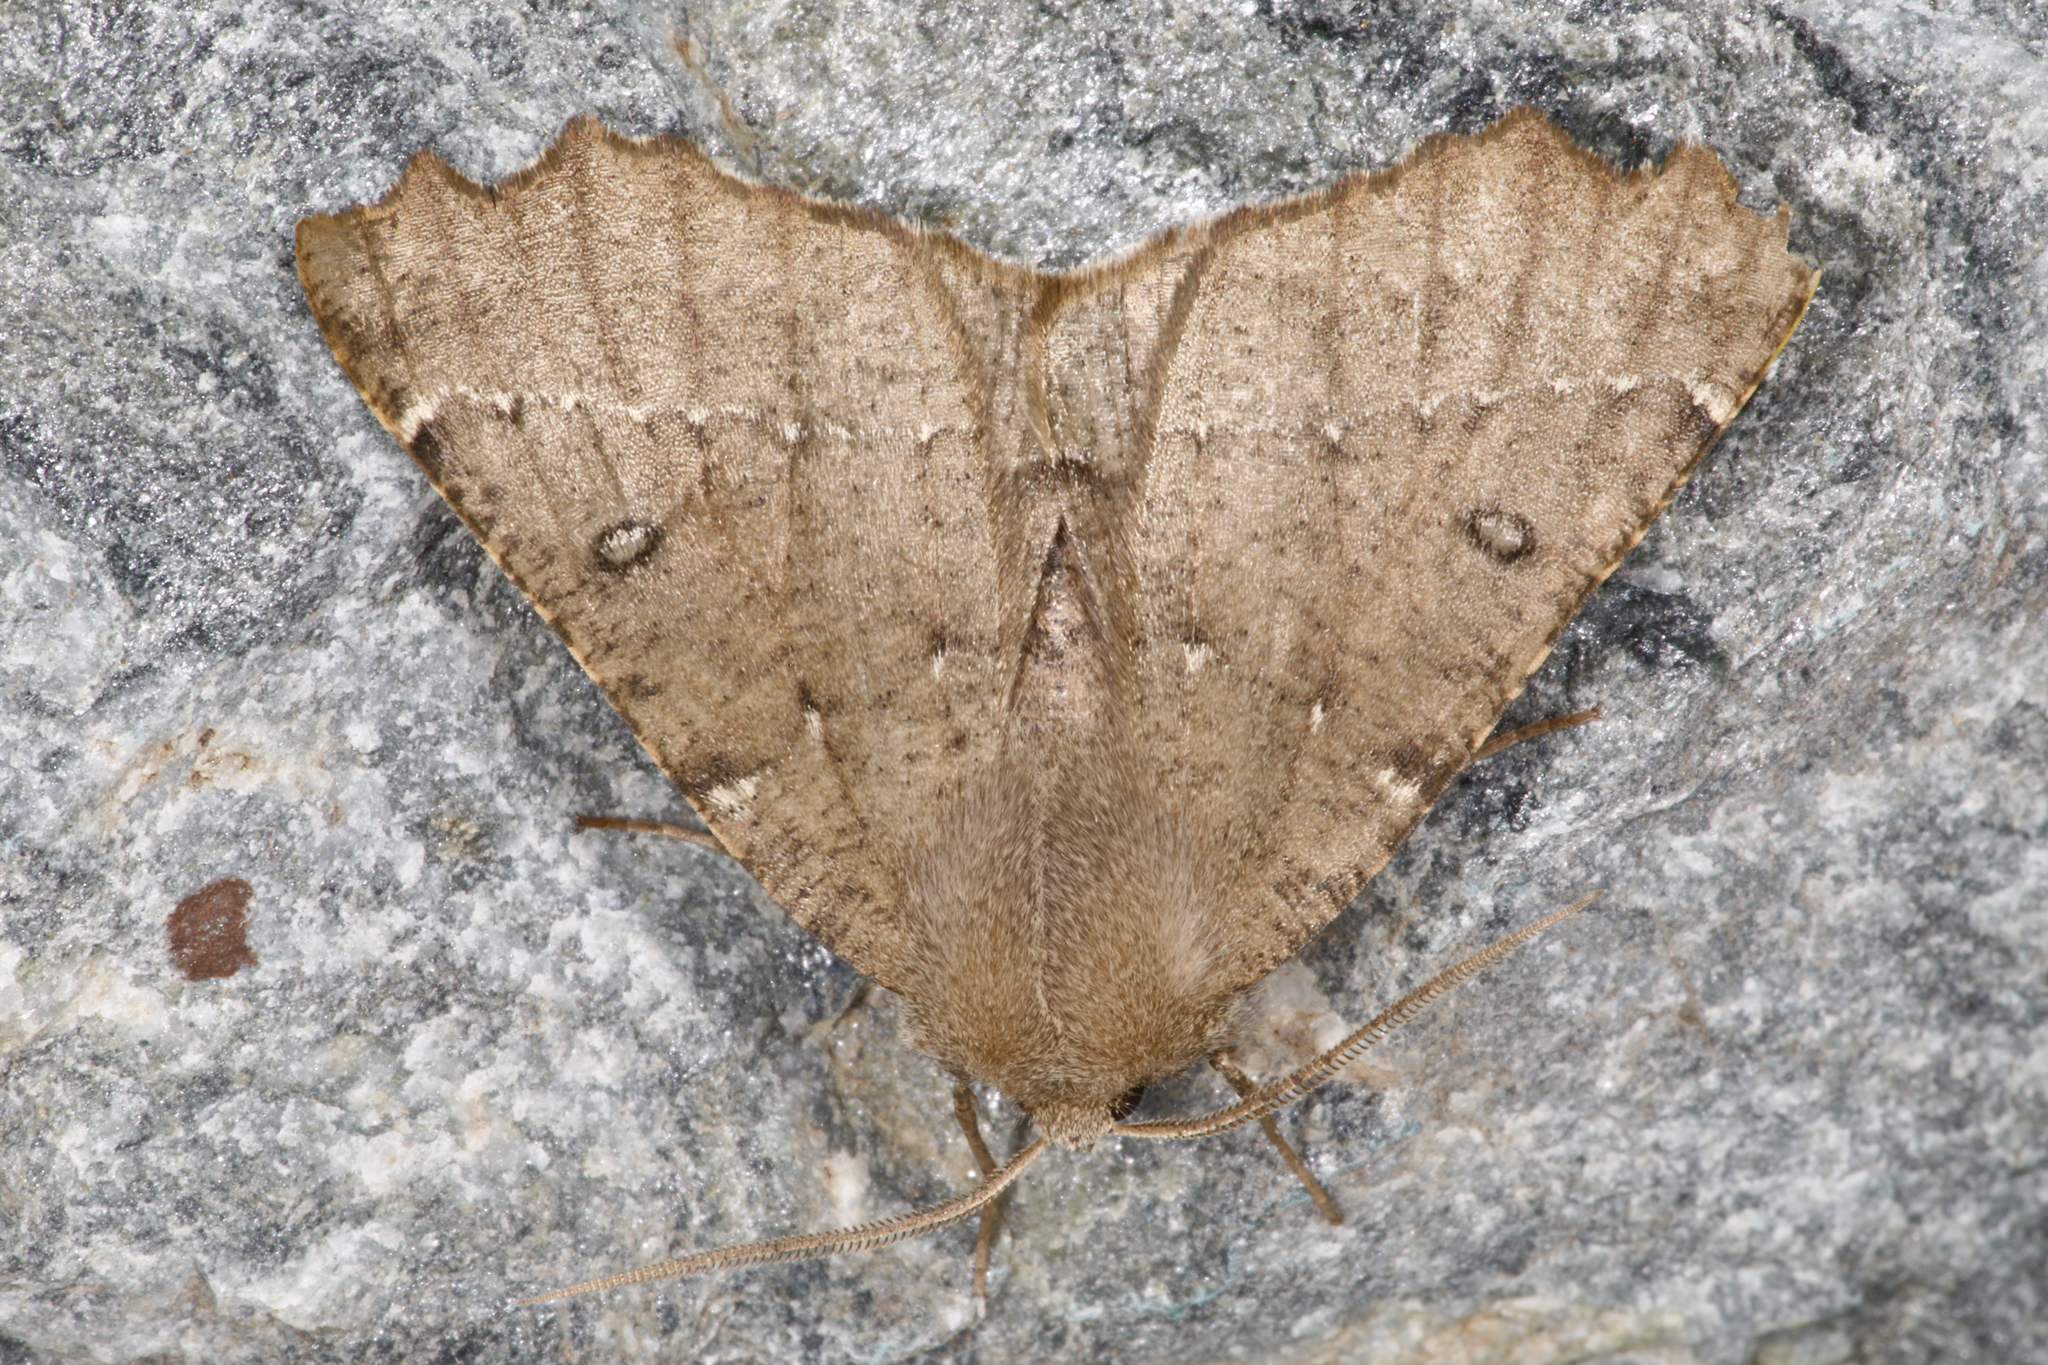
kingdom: Animalia
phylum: Arthropoda
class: Insecta
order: Lepidoptera
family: Geometridae
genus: Odontopera
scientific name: Odontopera bidentata
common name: Scalloped hazel
